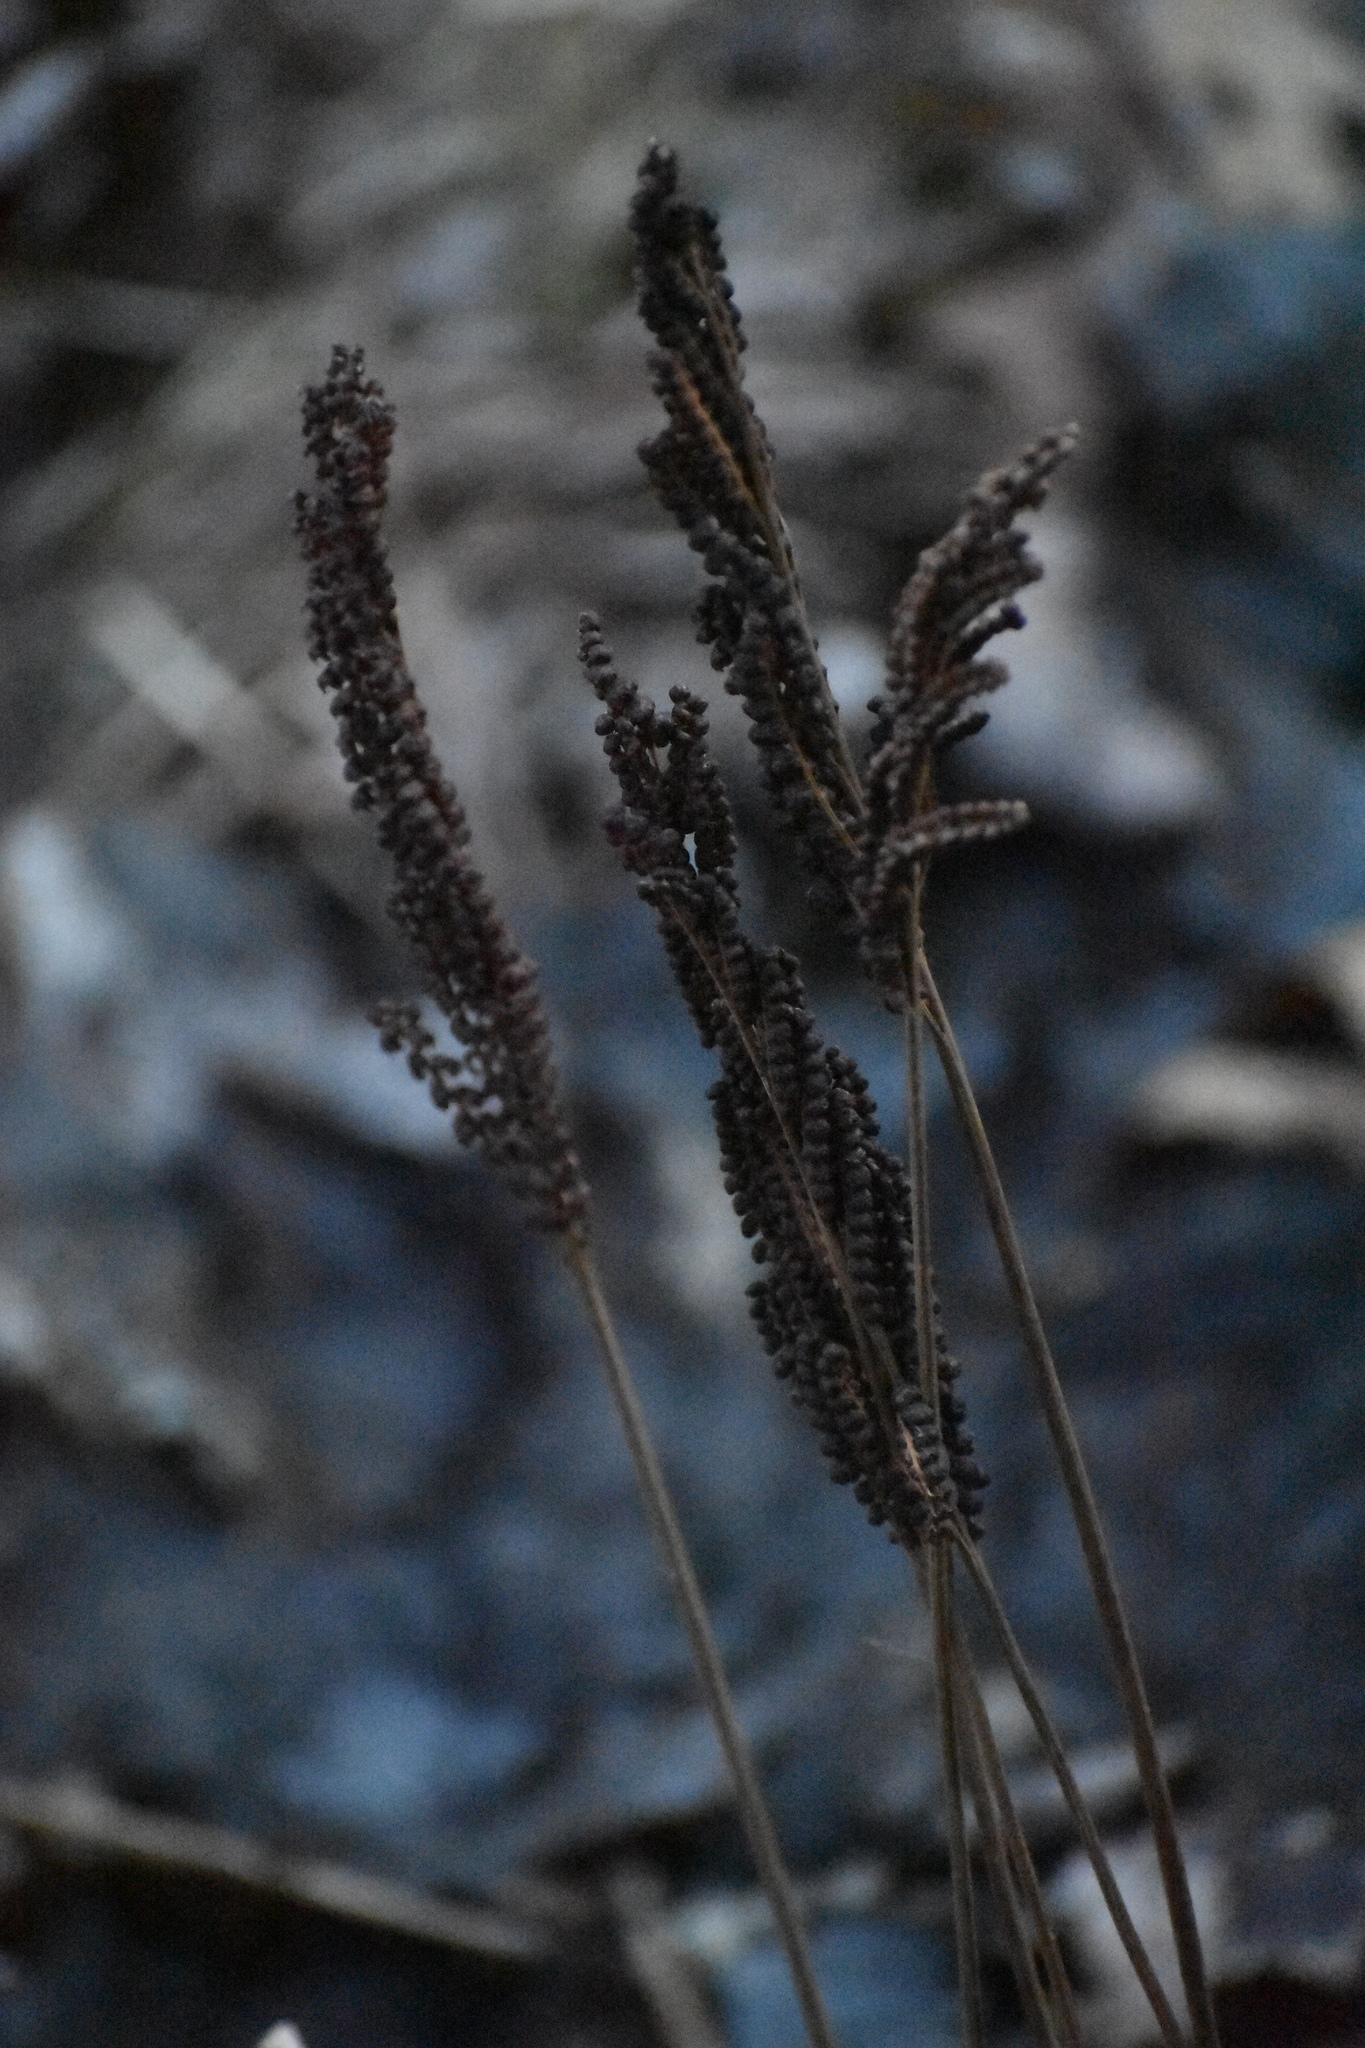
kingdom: Plantae
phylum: Tracheophyta
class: Polypodiopsida
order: Polypodiales
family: Onocleaceae
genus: Onoclea
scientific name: Onoclea sensibilis
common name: Sensitive fern
